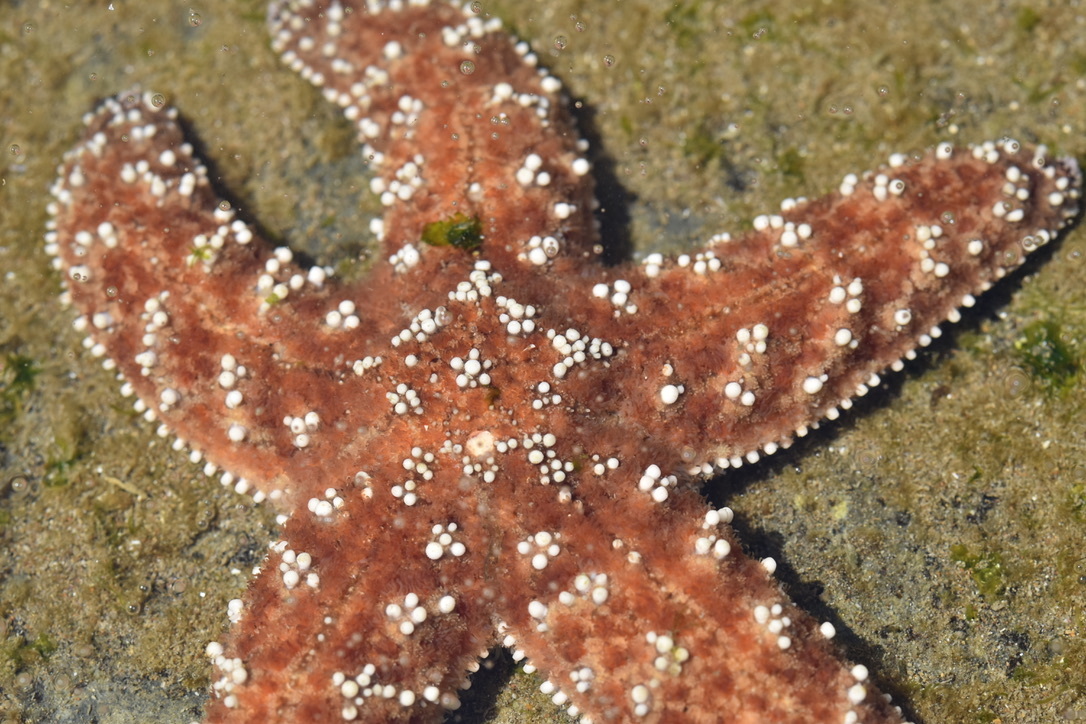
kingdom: Animalia
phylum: Echinodermata
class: Asteroidea
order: Forcipulatida
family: Asteriidae
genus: Pisaster
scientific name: Pisaster ochraceus
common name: Ochre stars
